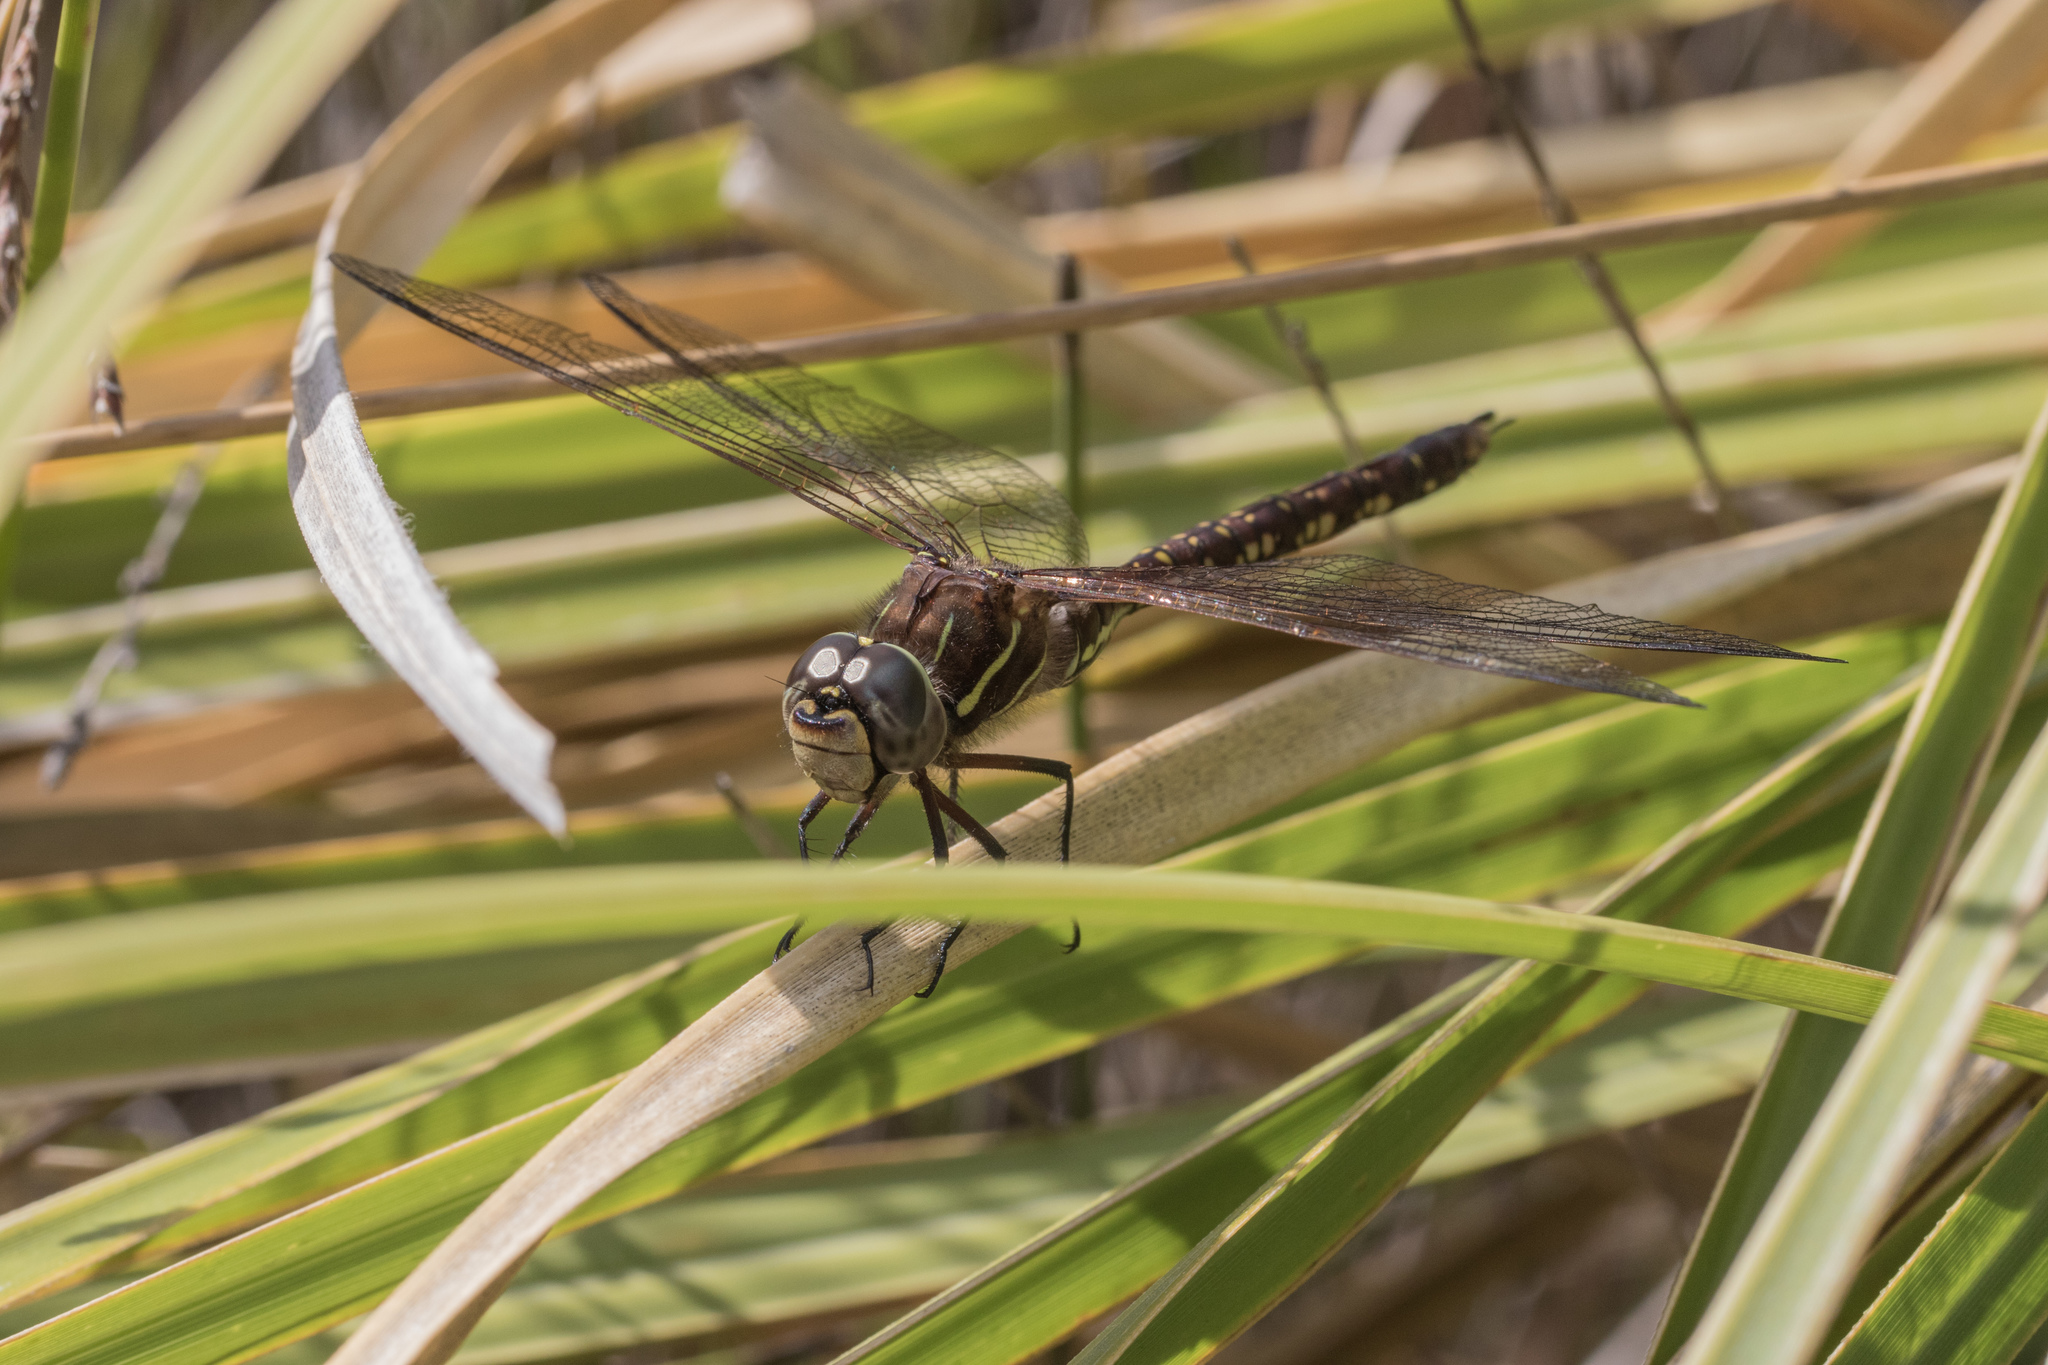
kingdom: Animalia
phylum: Arthropoda
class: Insecta
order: Odonata
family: Aeshnidae
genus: Aeshna
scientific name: Aeshna brevistyla
